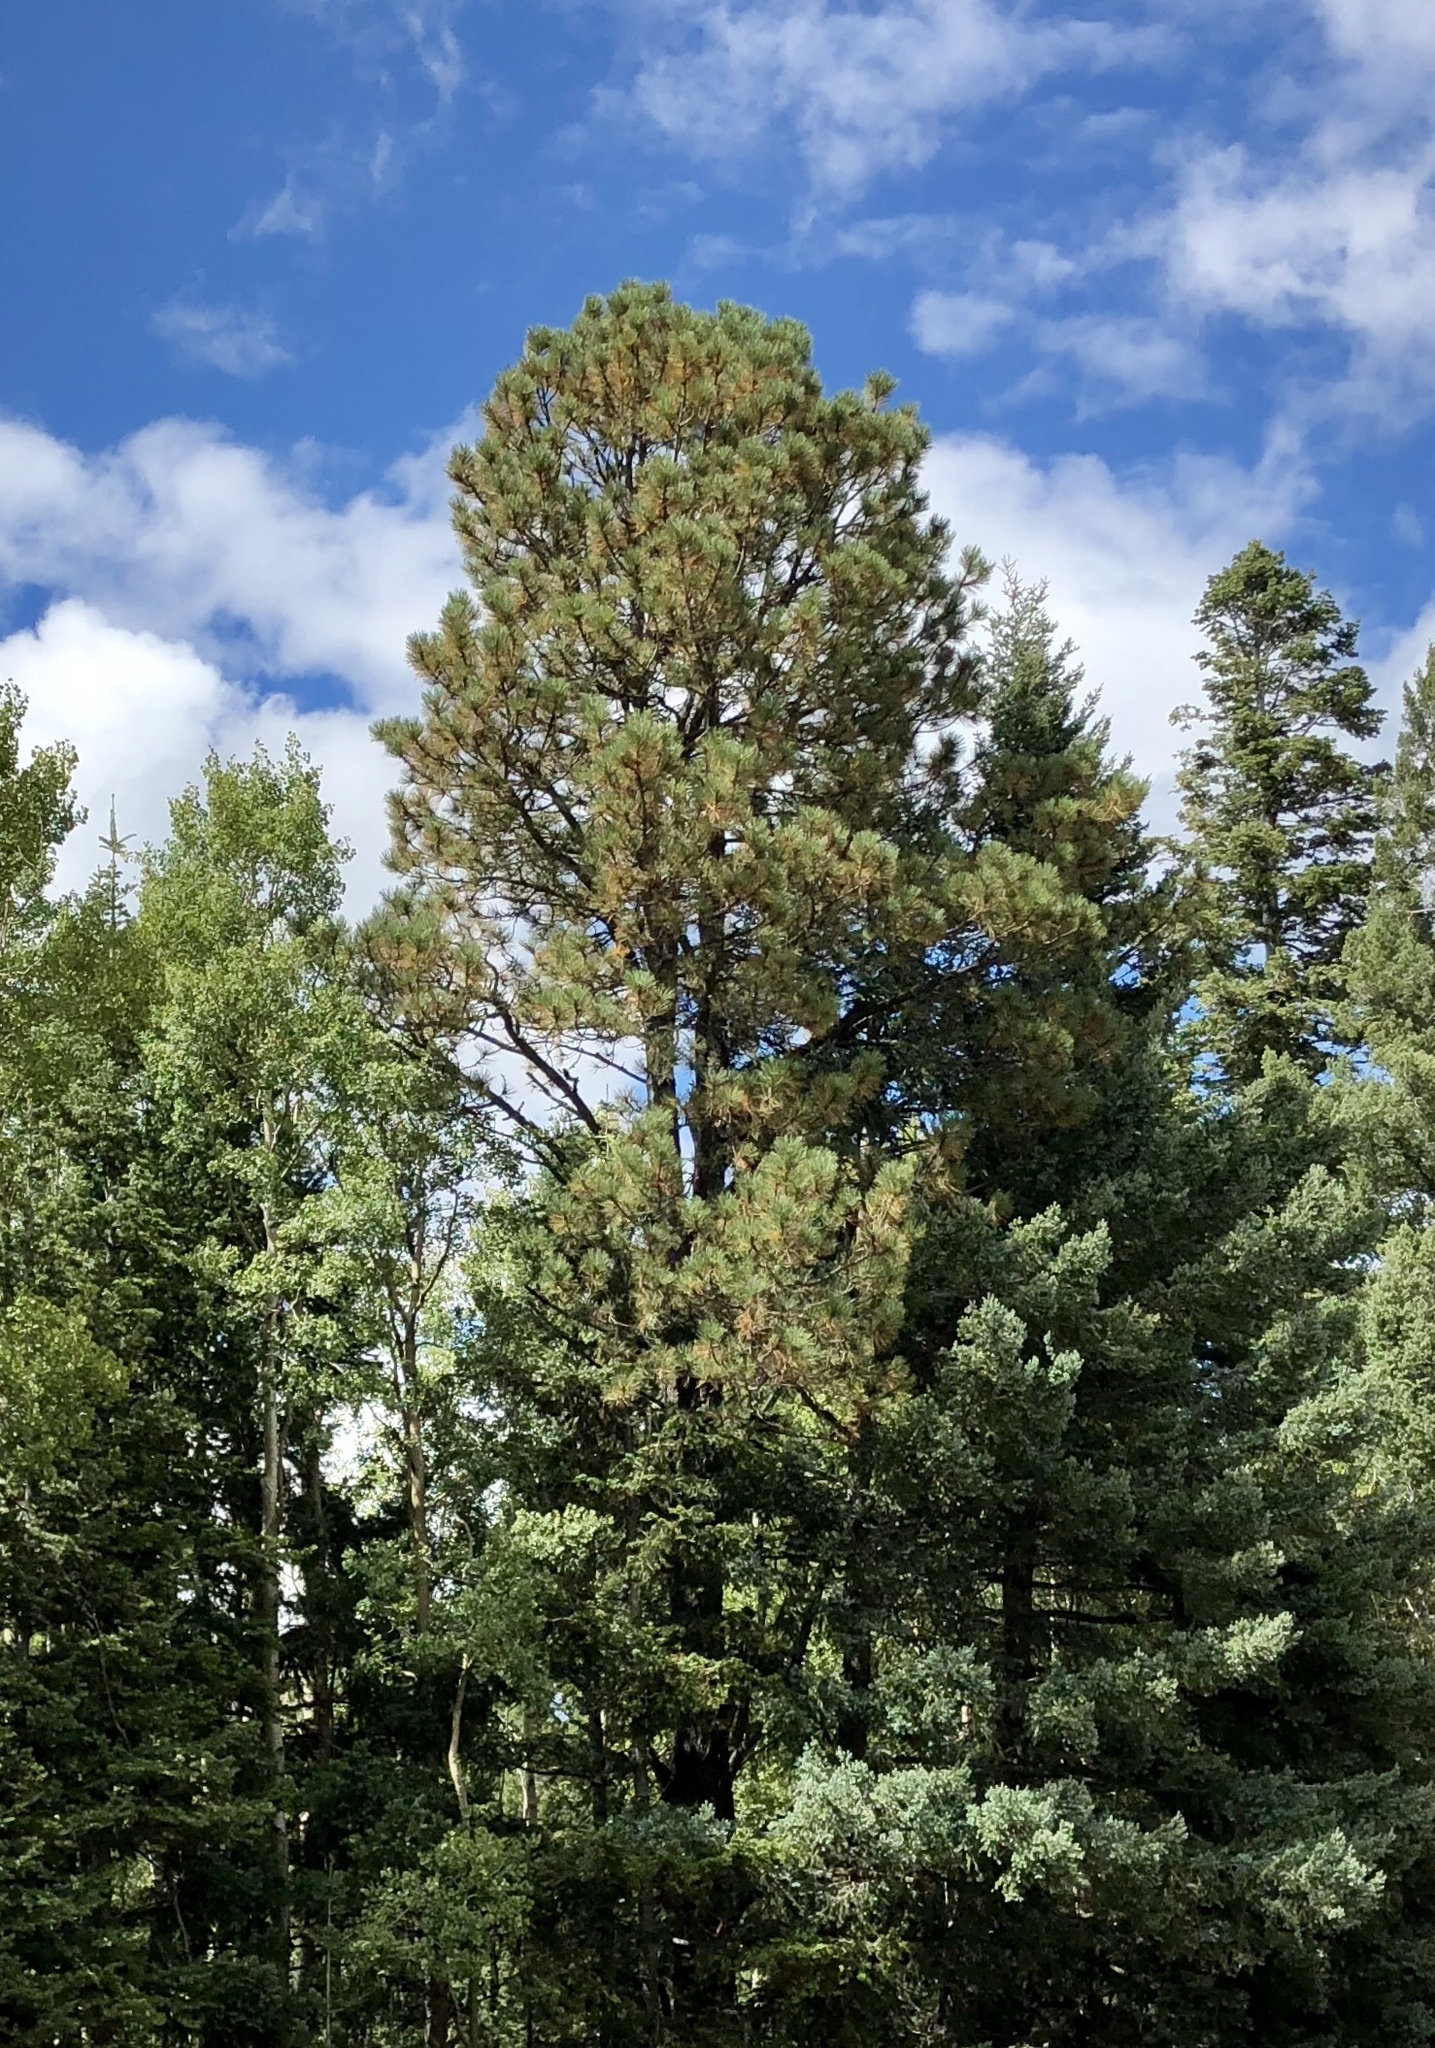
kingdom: Plantae
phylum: Tracheophyta
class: Pinopsida
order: Pinales
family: Pinaceae
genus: Pinus
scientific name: Pinus ponderosa
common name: Western yellow-pine
